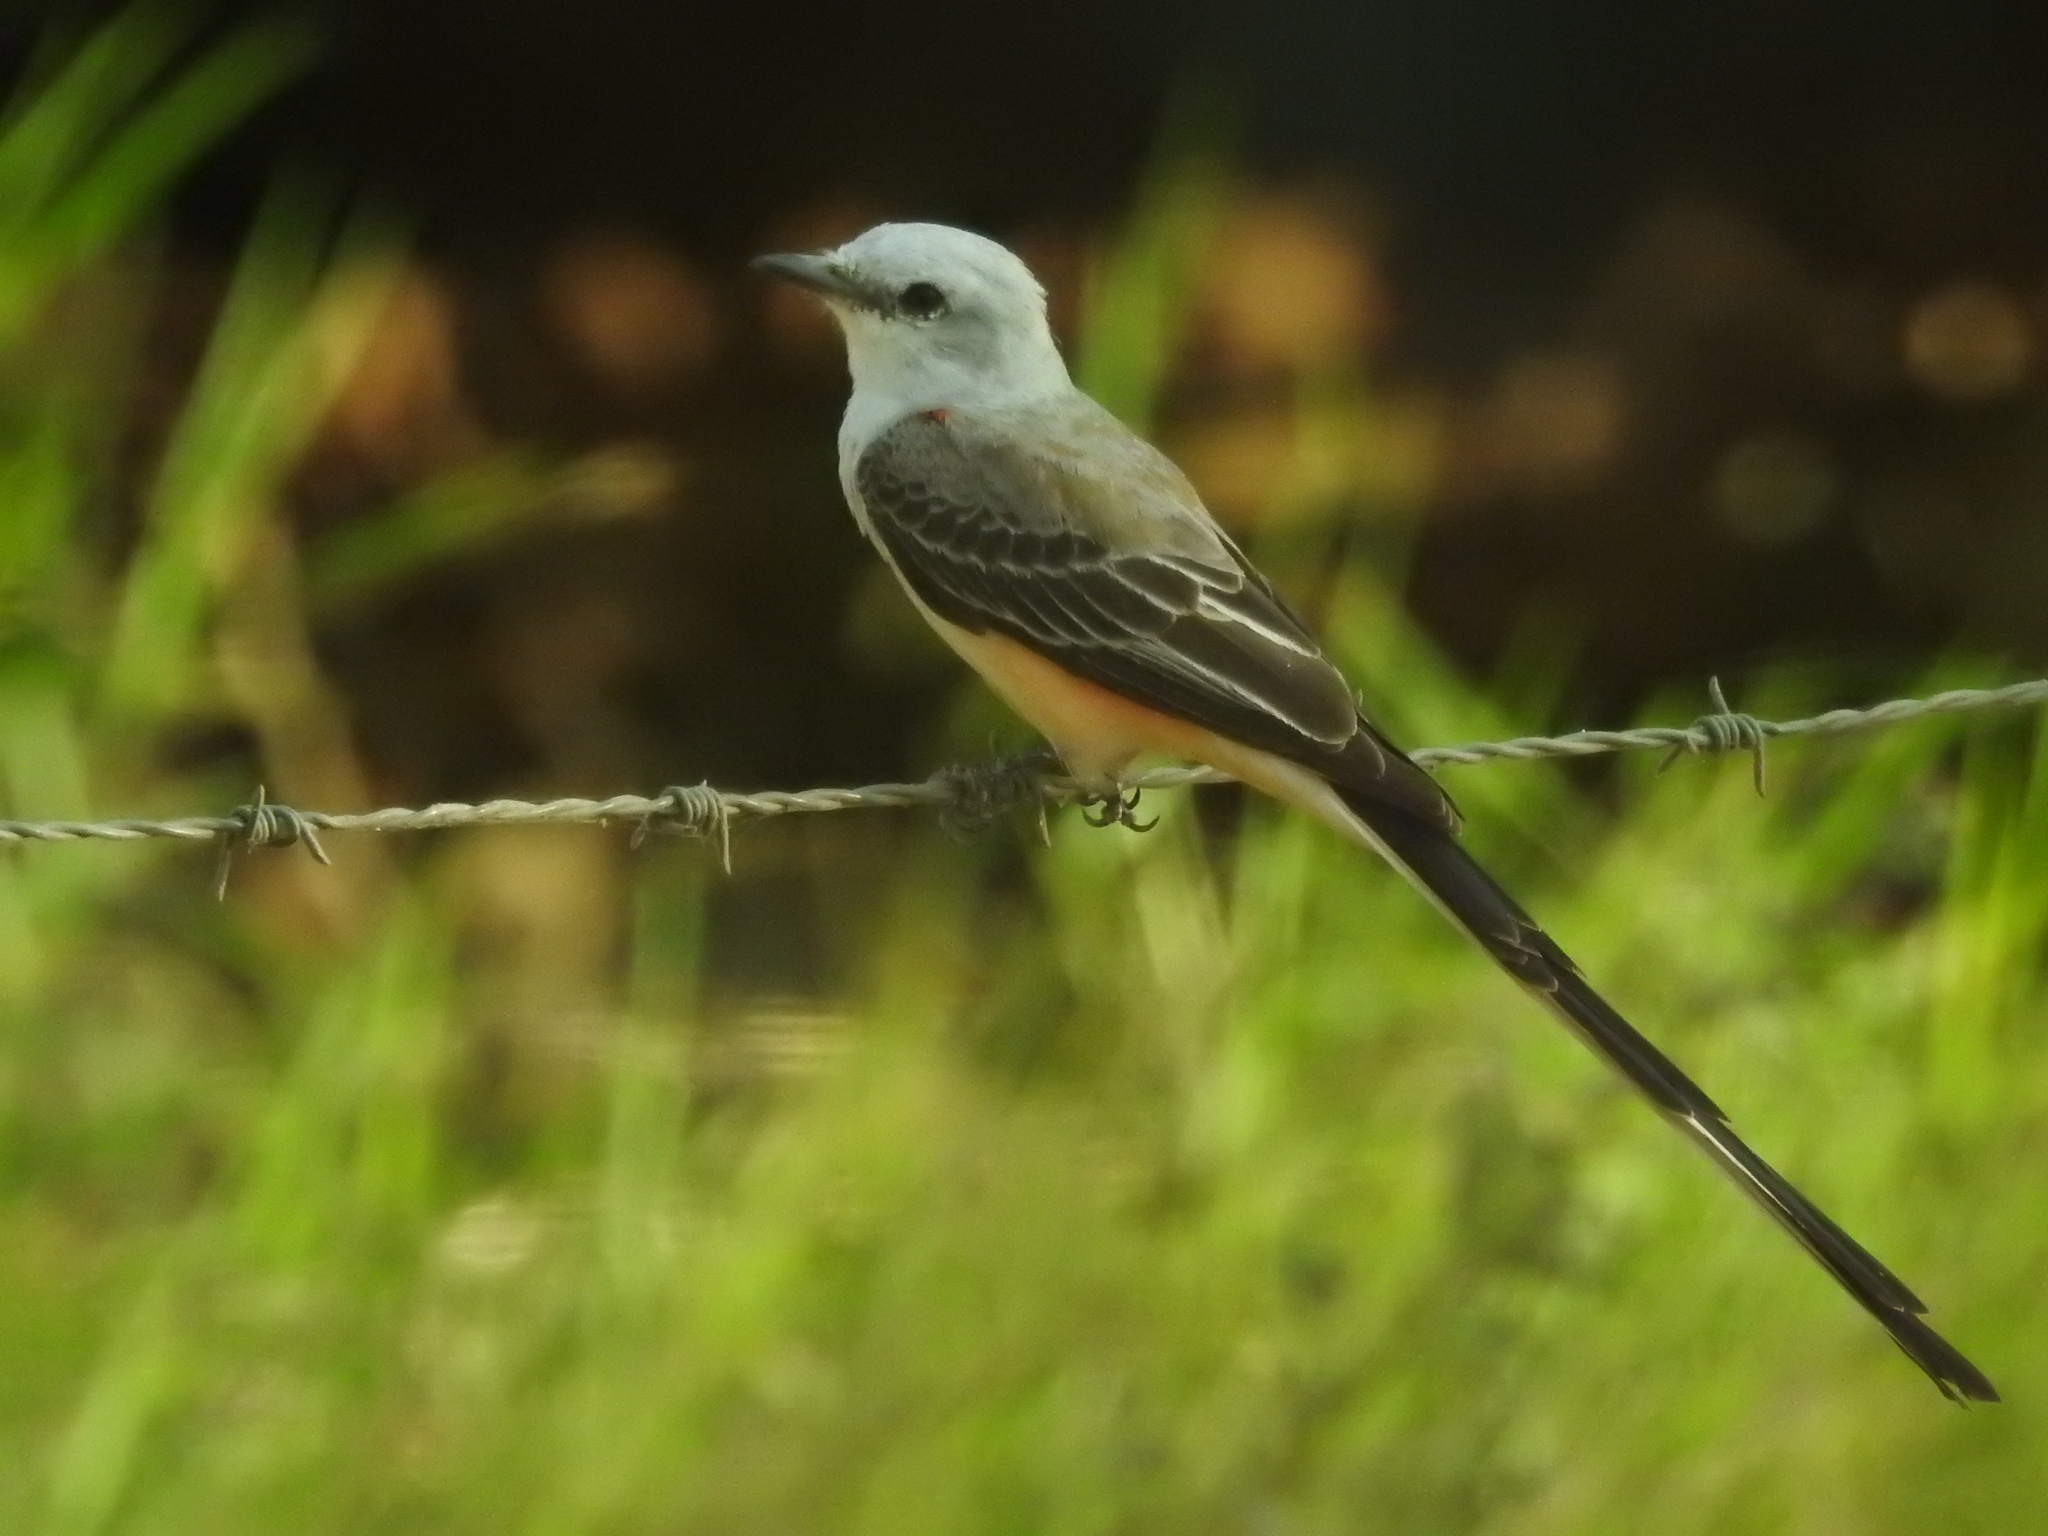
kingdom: Animalia
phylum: Chordata
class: Aves
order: Passeriformes
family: Tyrannidae
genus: Tyrannus
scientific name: Tyrannus forficatus
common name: Scissor-tailed flycatcher
